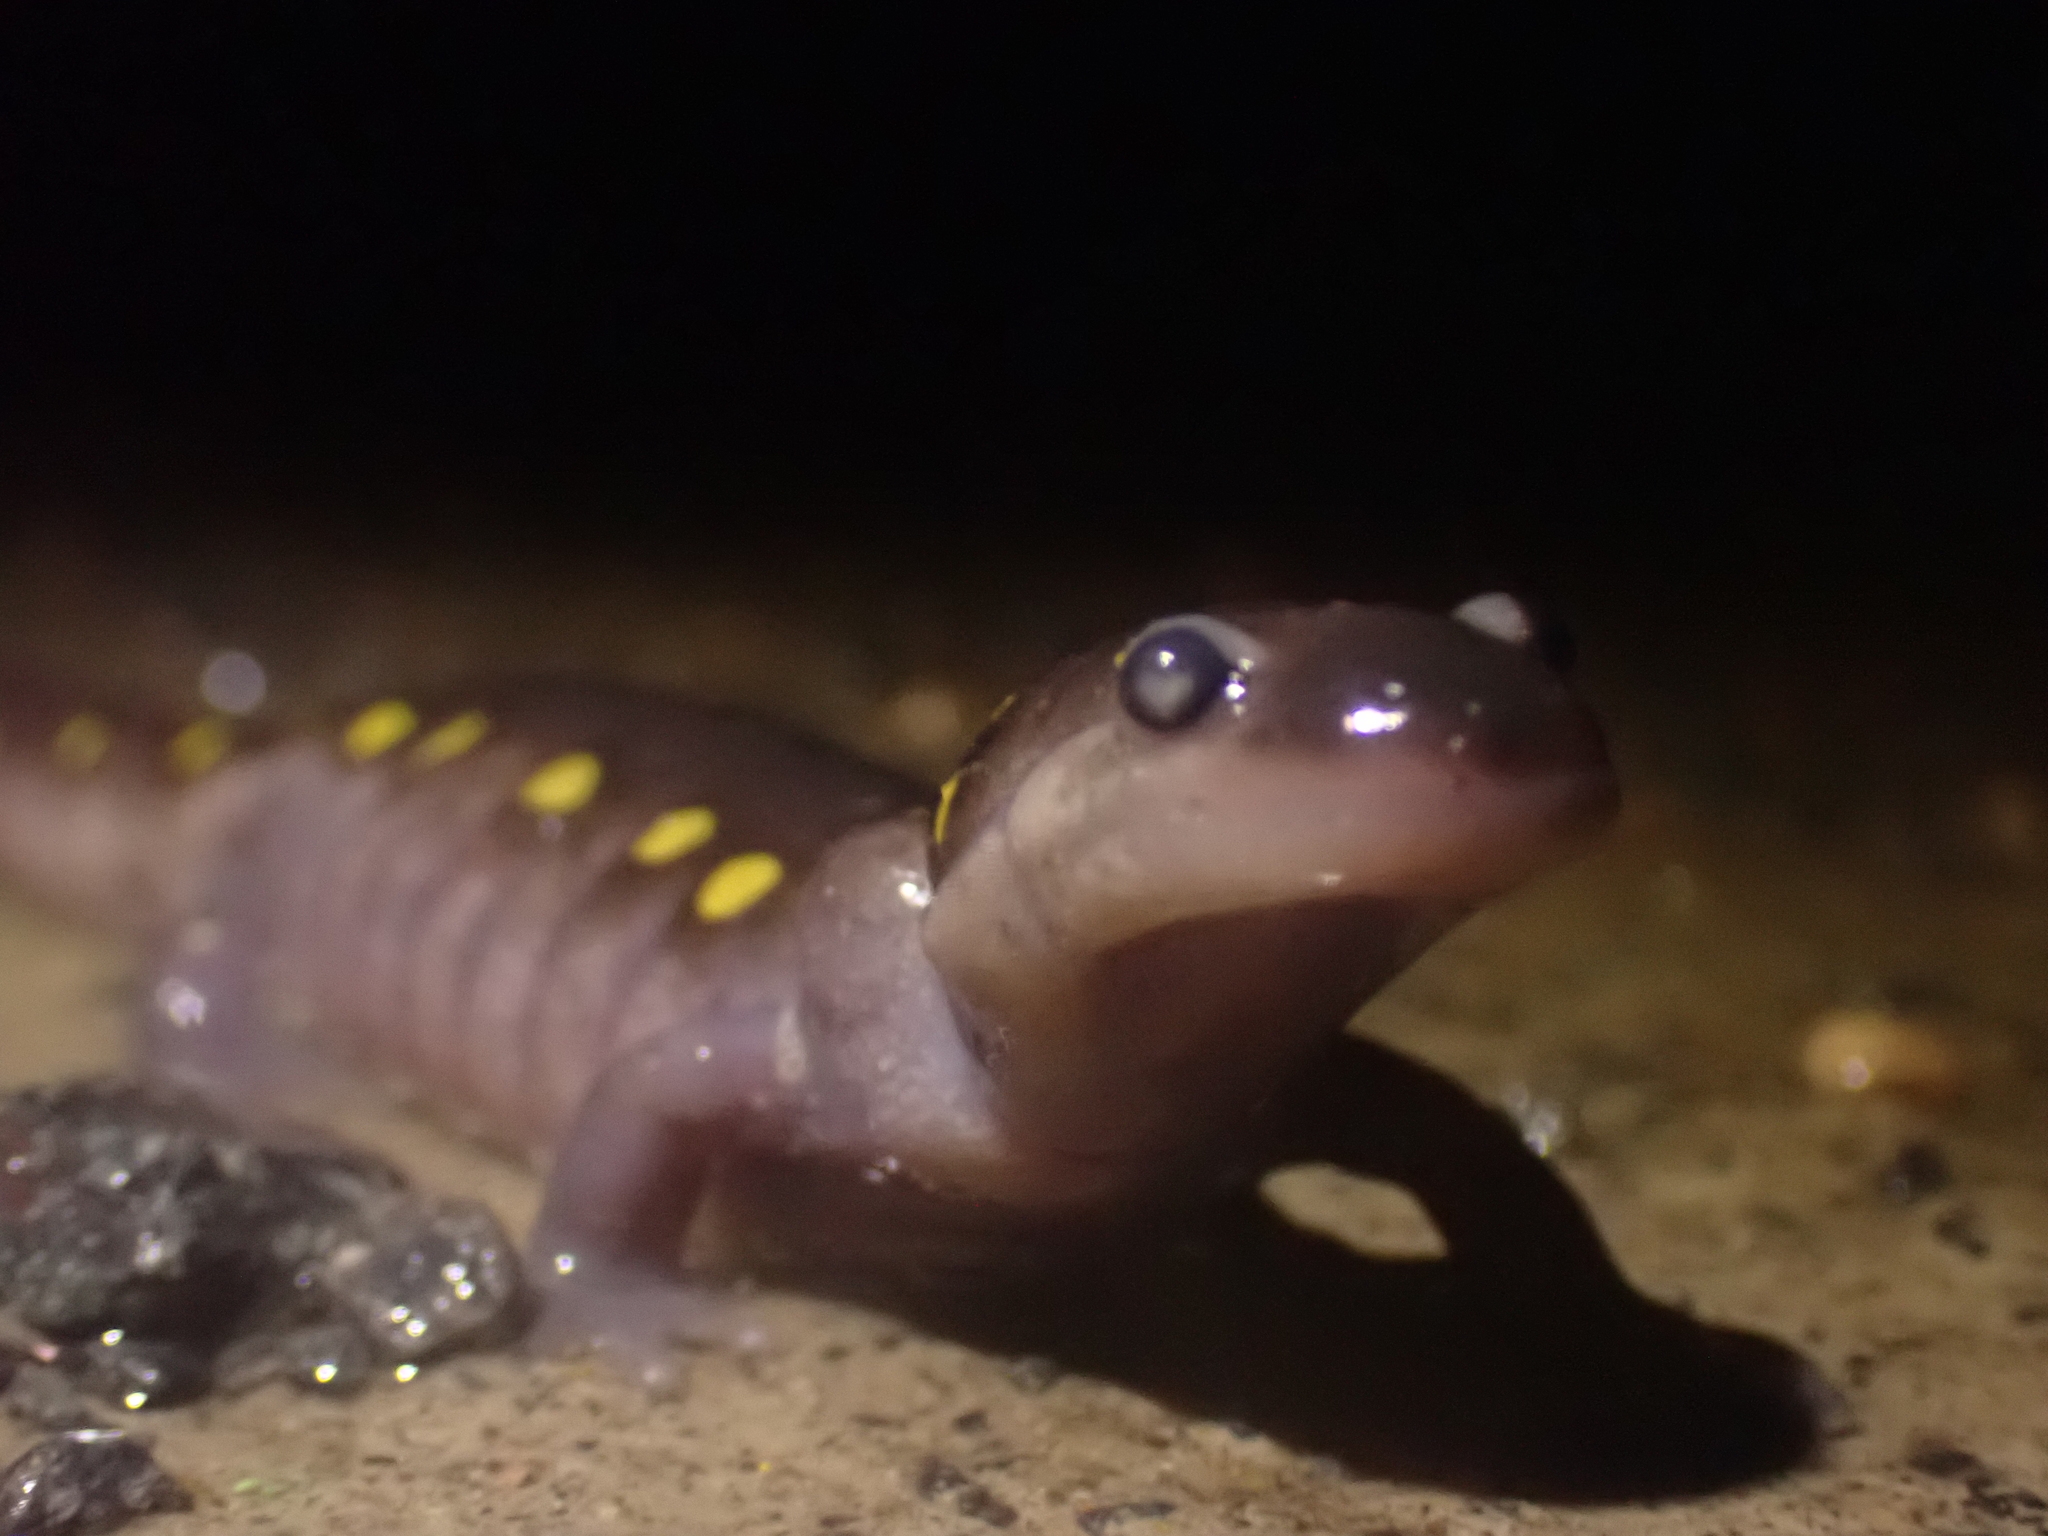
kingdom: Animalia
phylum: Chordata
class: Amphibia
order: Caudata
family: Ambystomatidae
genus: Ambystoma
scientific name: Ambystoma maculatum
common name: Spotted salamander
